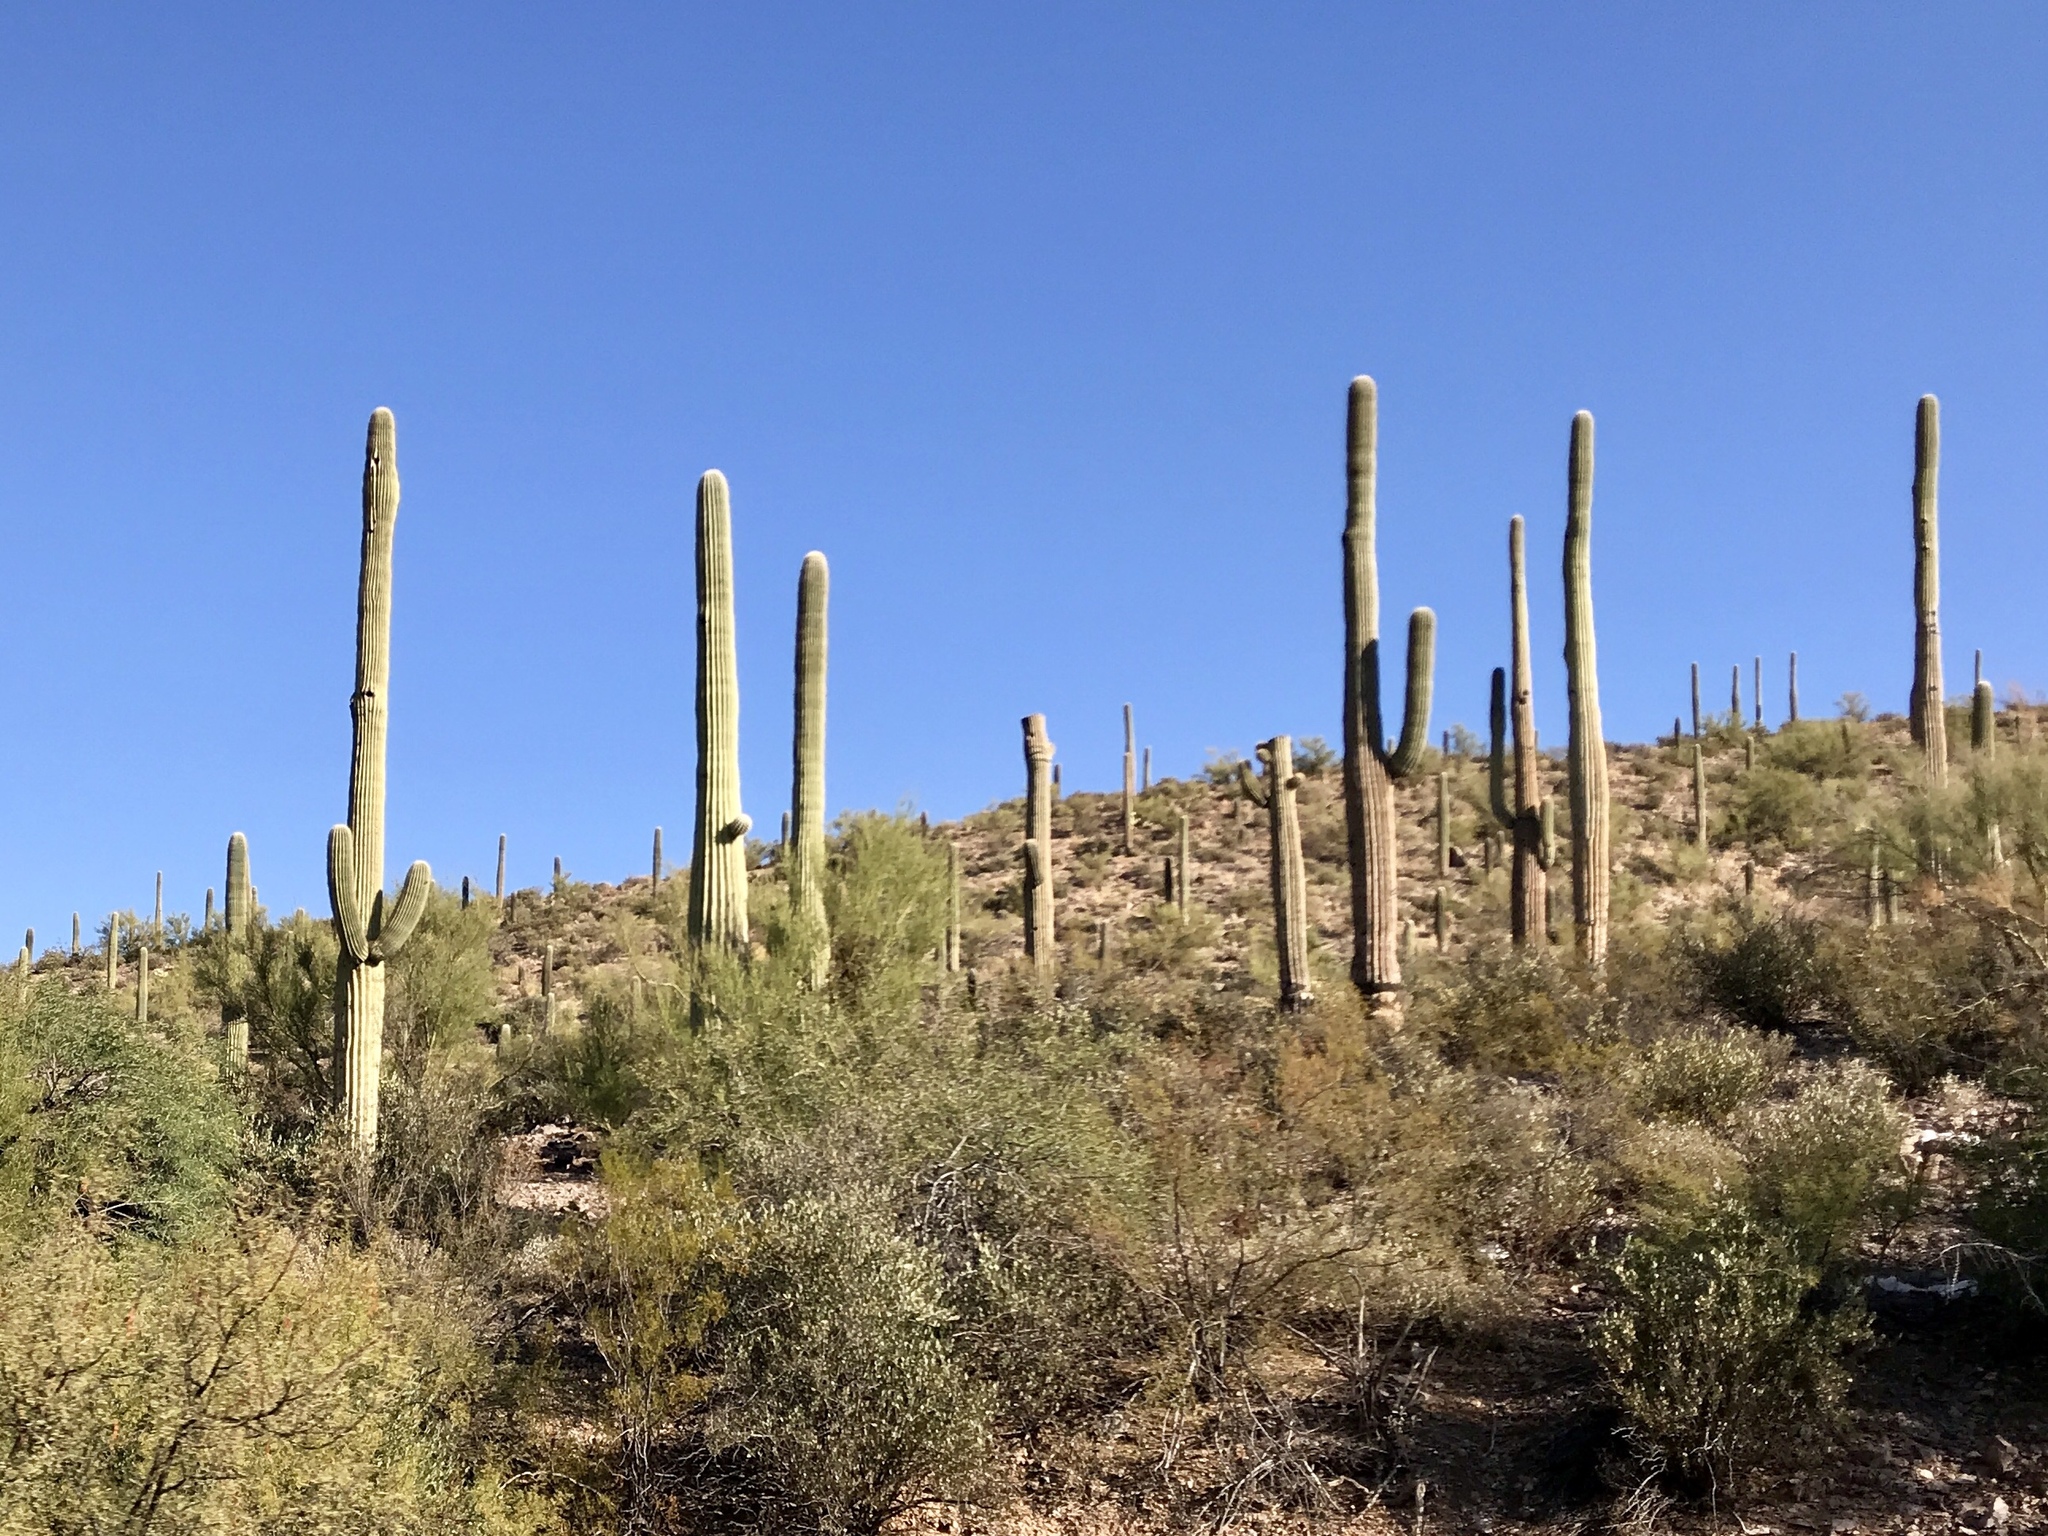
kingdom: Plantae
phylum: Tracheophyta
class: Magnoliopsida
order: Caryophyllales
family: Cactaceae
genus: Carnegiea
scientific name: Carnegiea gigantea
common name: Saguaro
